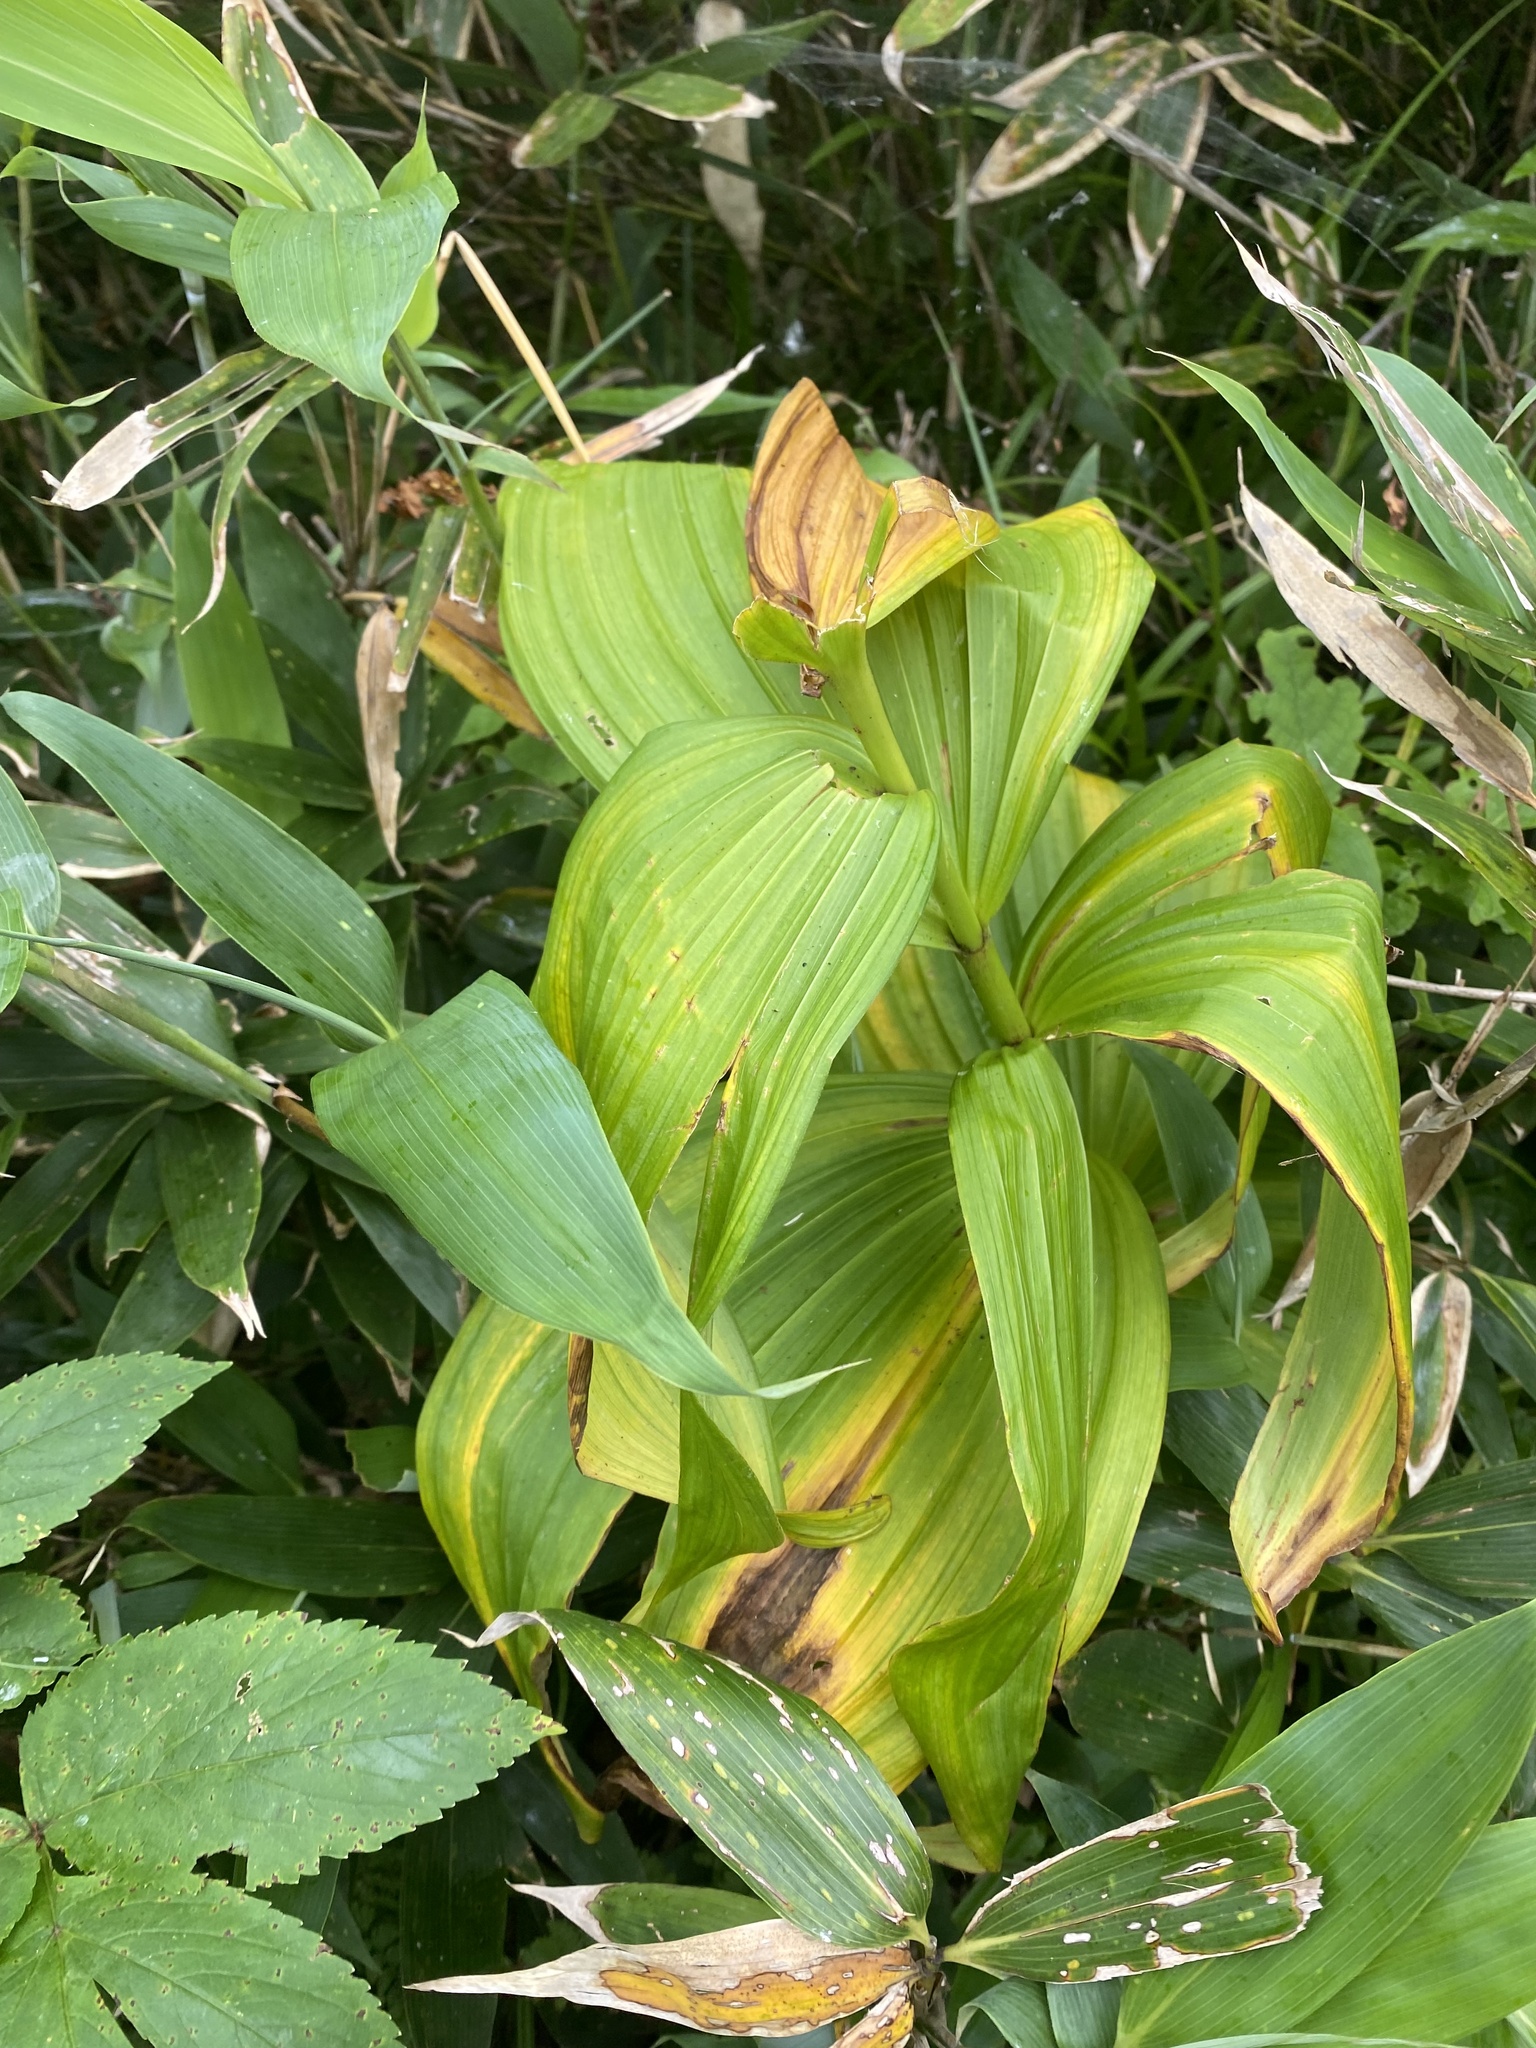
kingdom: Plantae
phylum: Tracheophyta
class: Liliopsida
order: Liliales
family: Melanthiaceae
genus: Veratrum
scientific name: Veratrum oxysepalum
